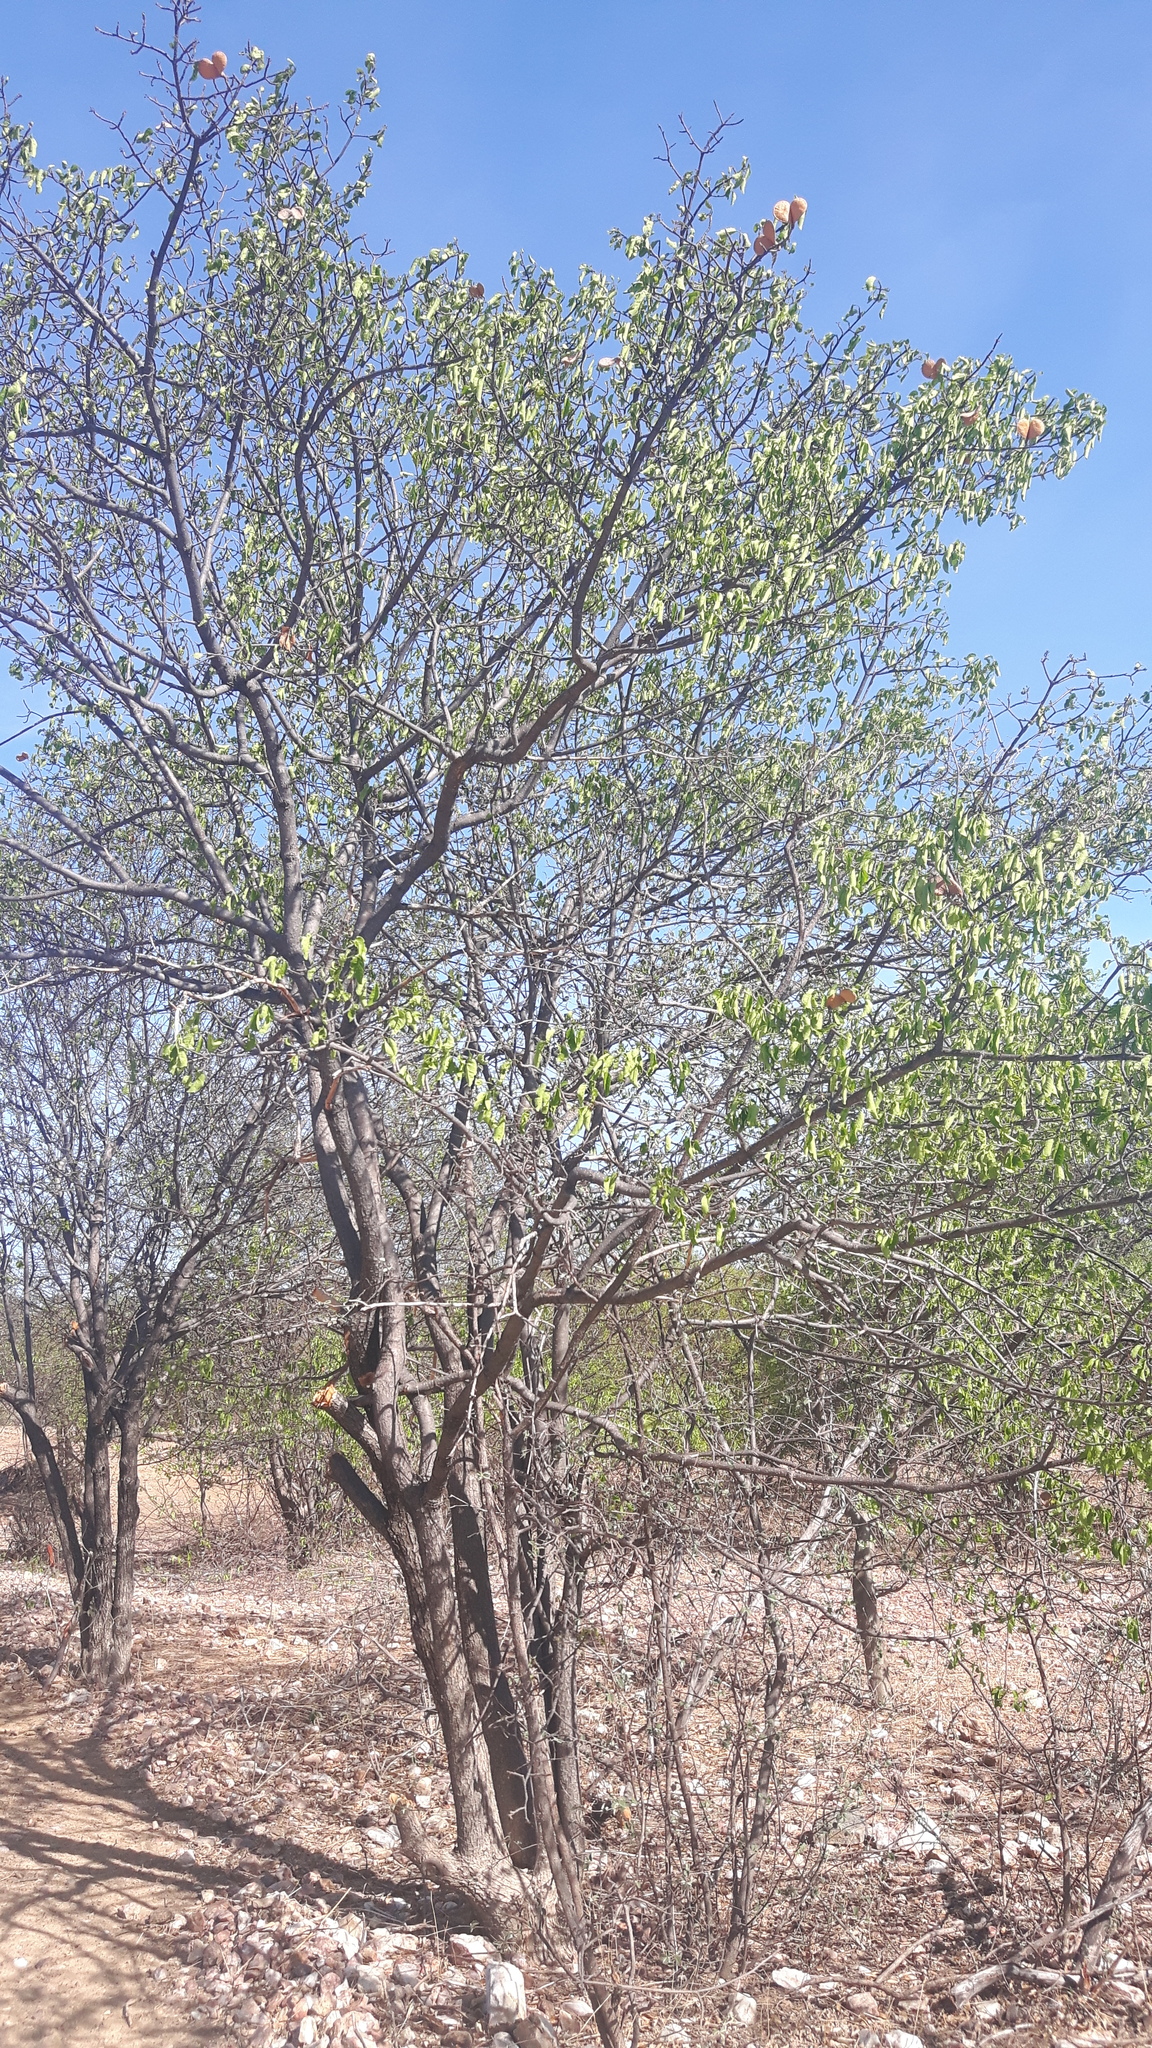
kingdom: Plantae
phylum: Tracheophyta
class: Magnoliopsida
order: Gentianales
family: Apocynaceae
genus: Aspidosperma
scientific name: Aspidosperma pyrifolium
